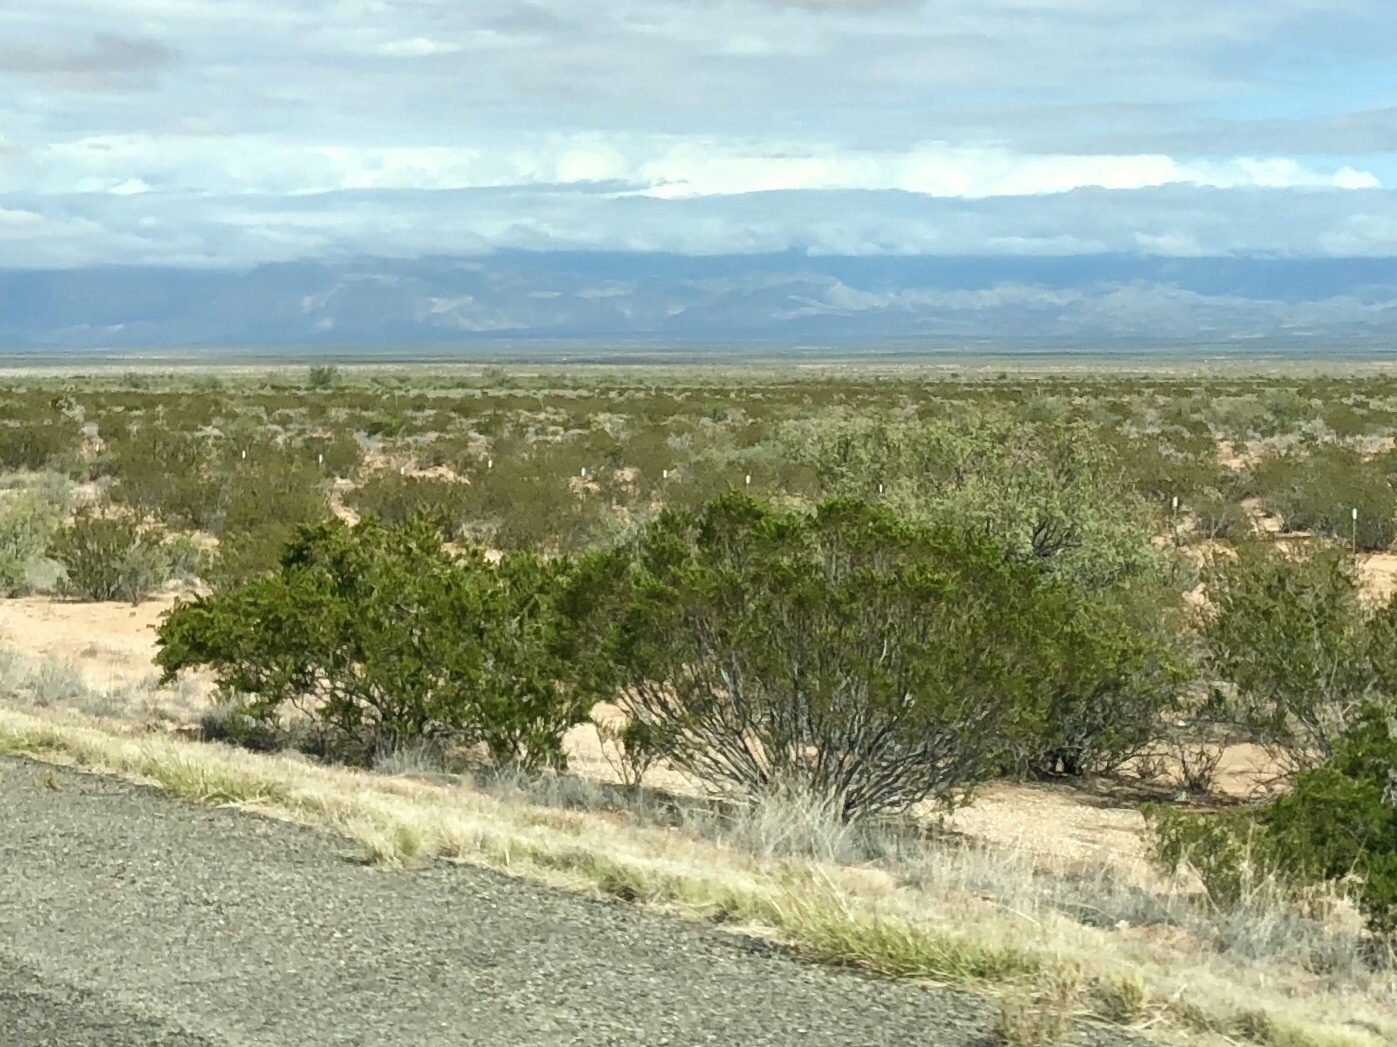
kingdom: Plantae
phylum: Tracheophyta
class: Magnoliopsida
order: Zygophyllales
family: Zygophyllaceae
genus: Larrea
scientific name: Larrea tridentata
